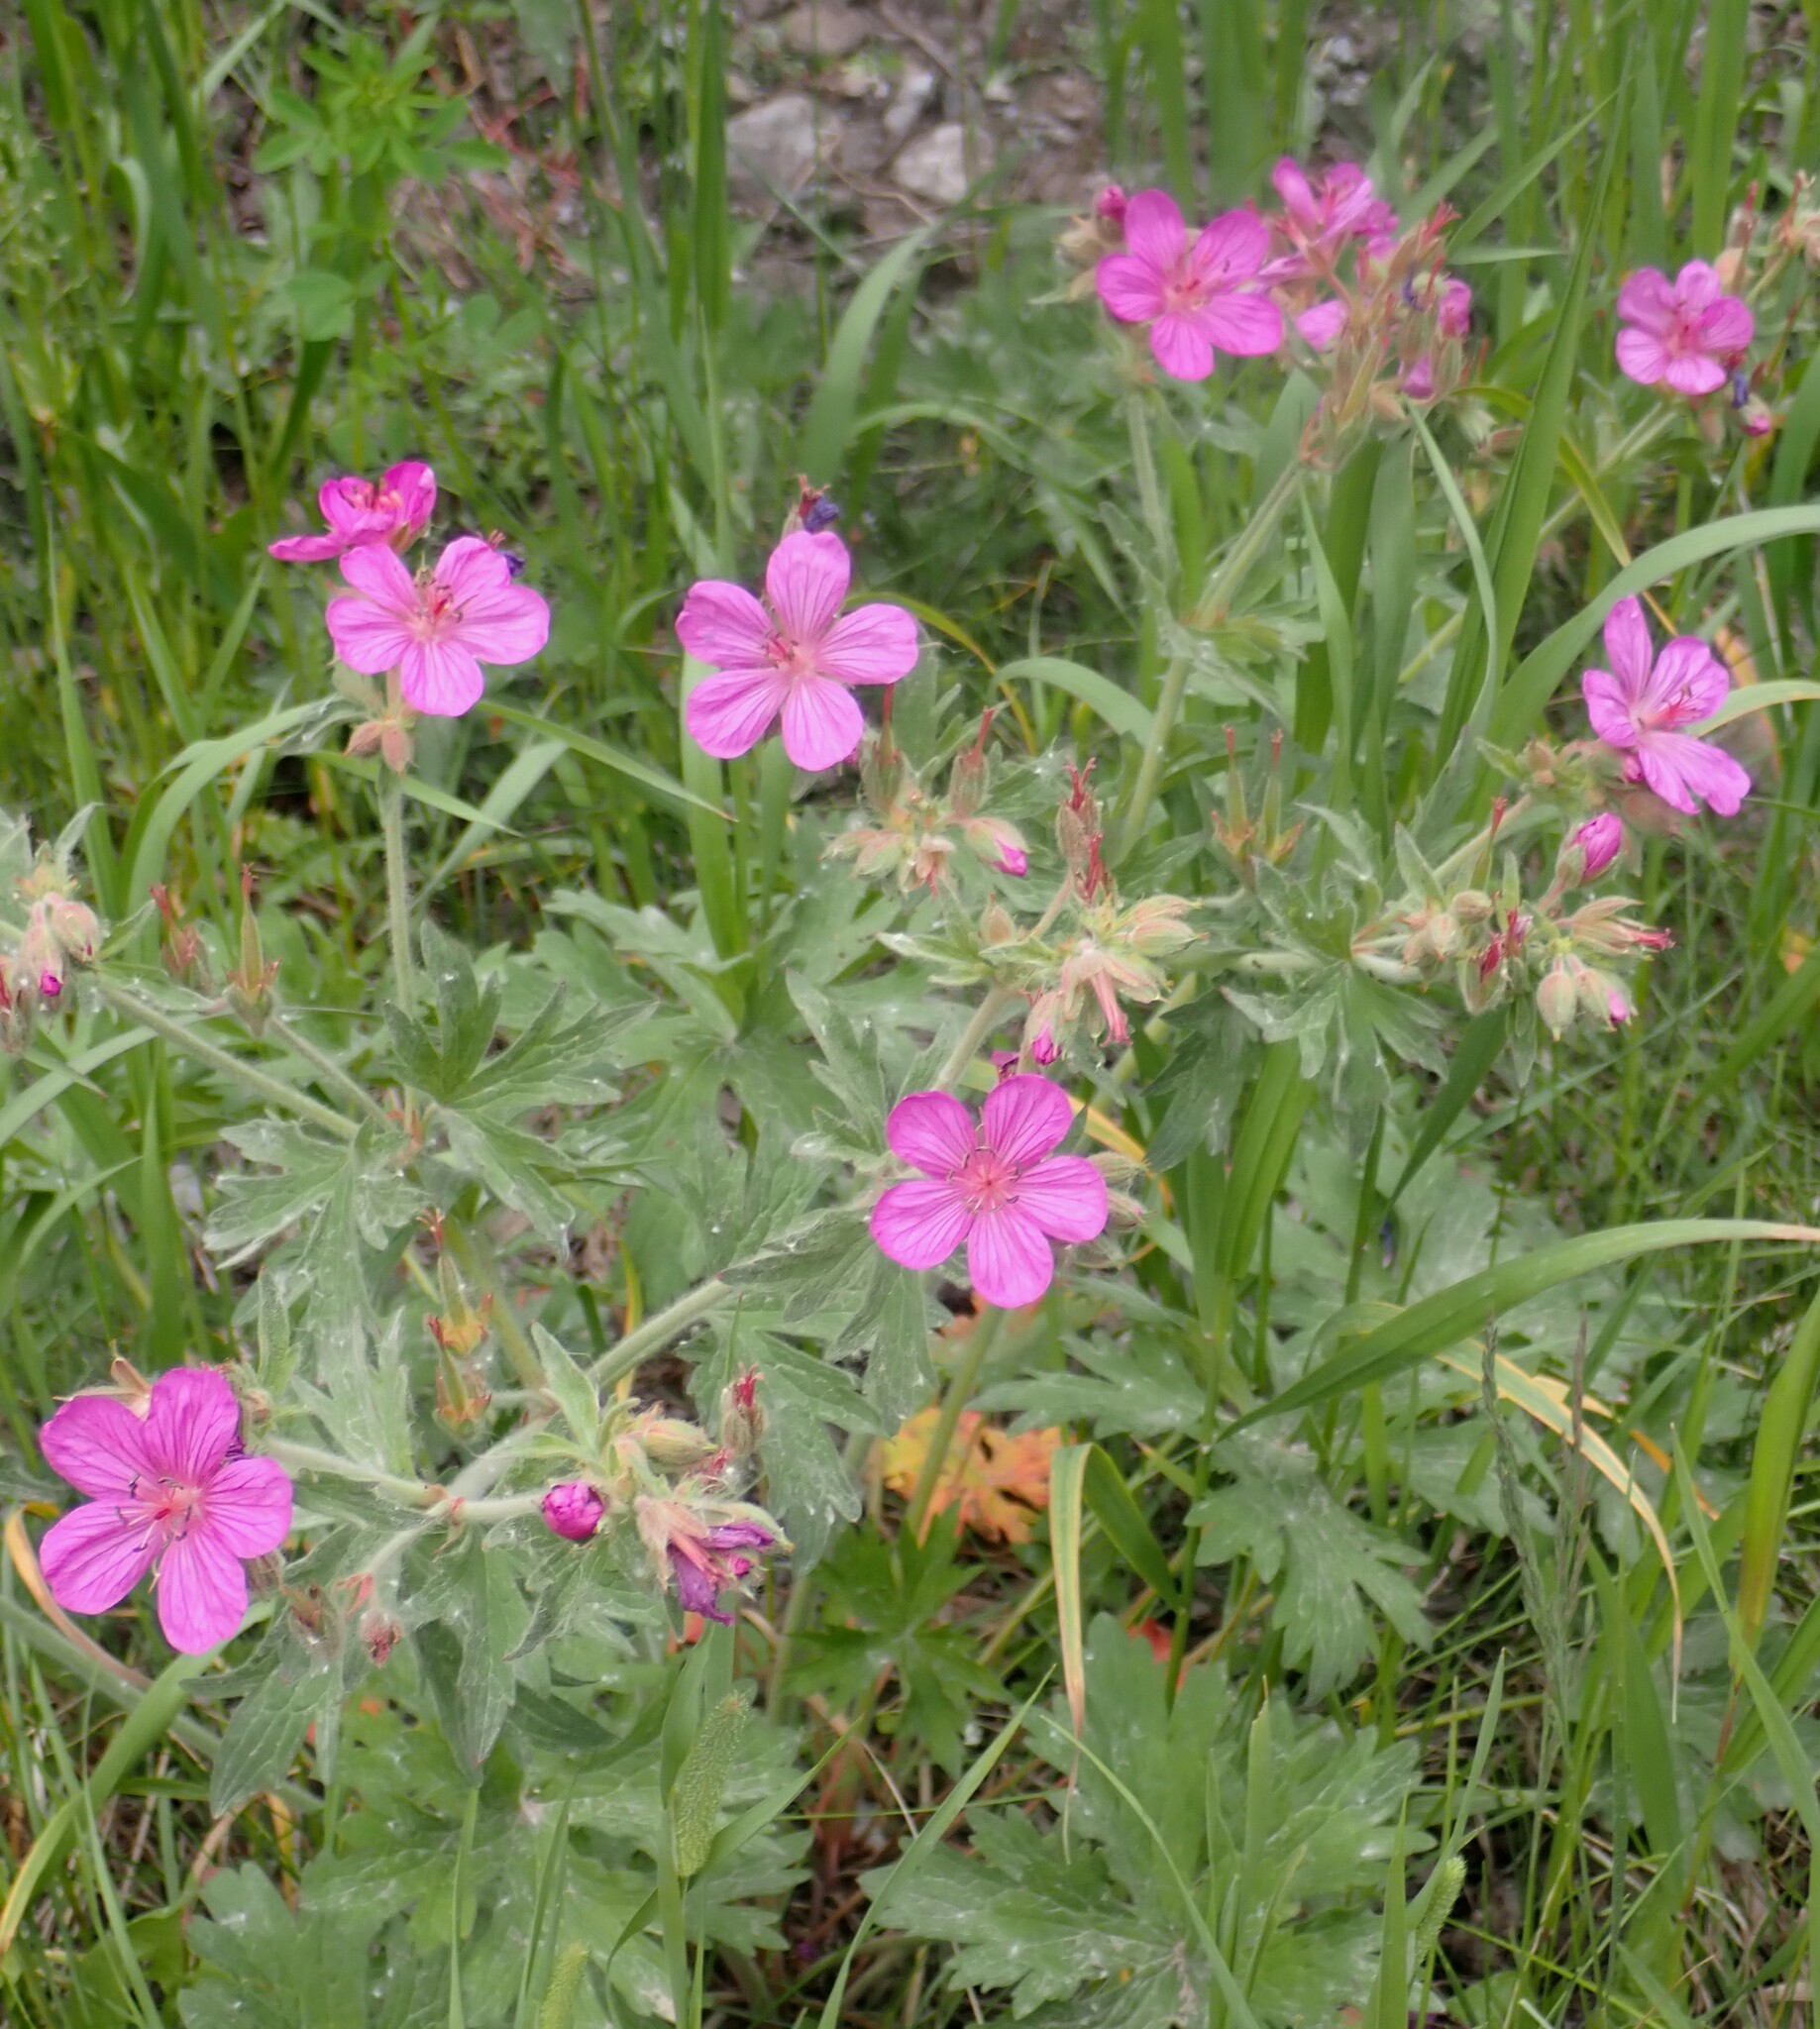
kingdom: Plantae
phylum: Tracheophyta
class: Magnoliopsida
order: Geraniales
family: Geraniaceae
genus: Geranium
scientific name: Geranium viscosissimum
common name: Purple geranium
